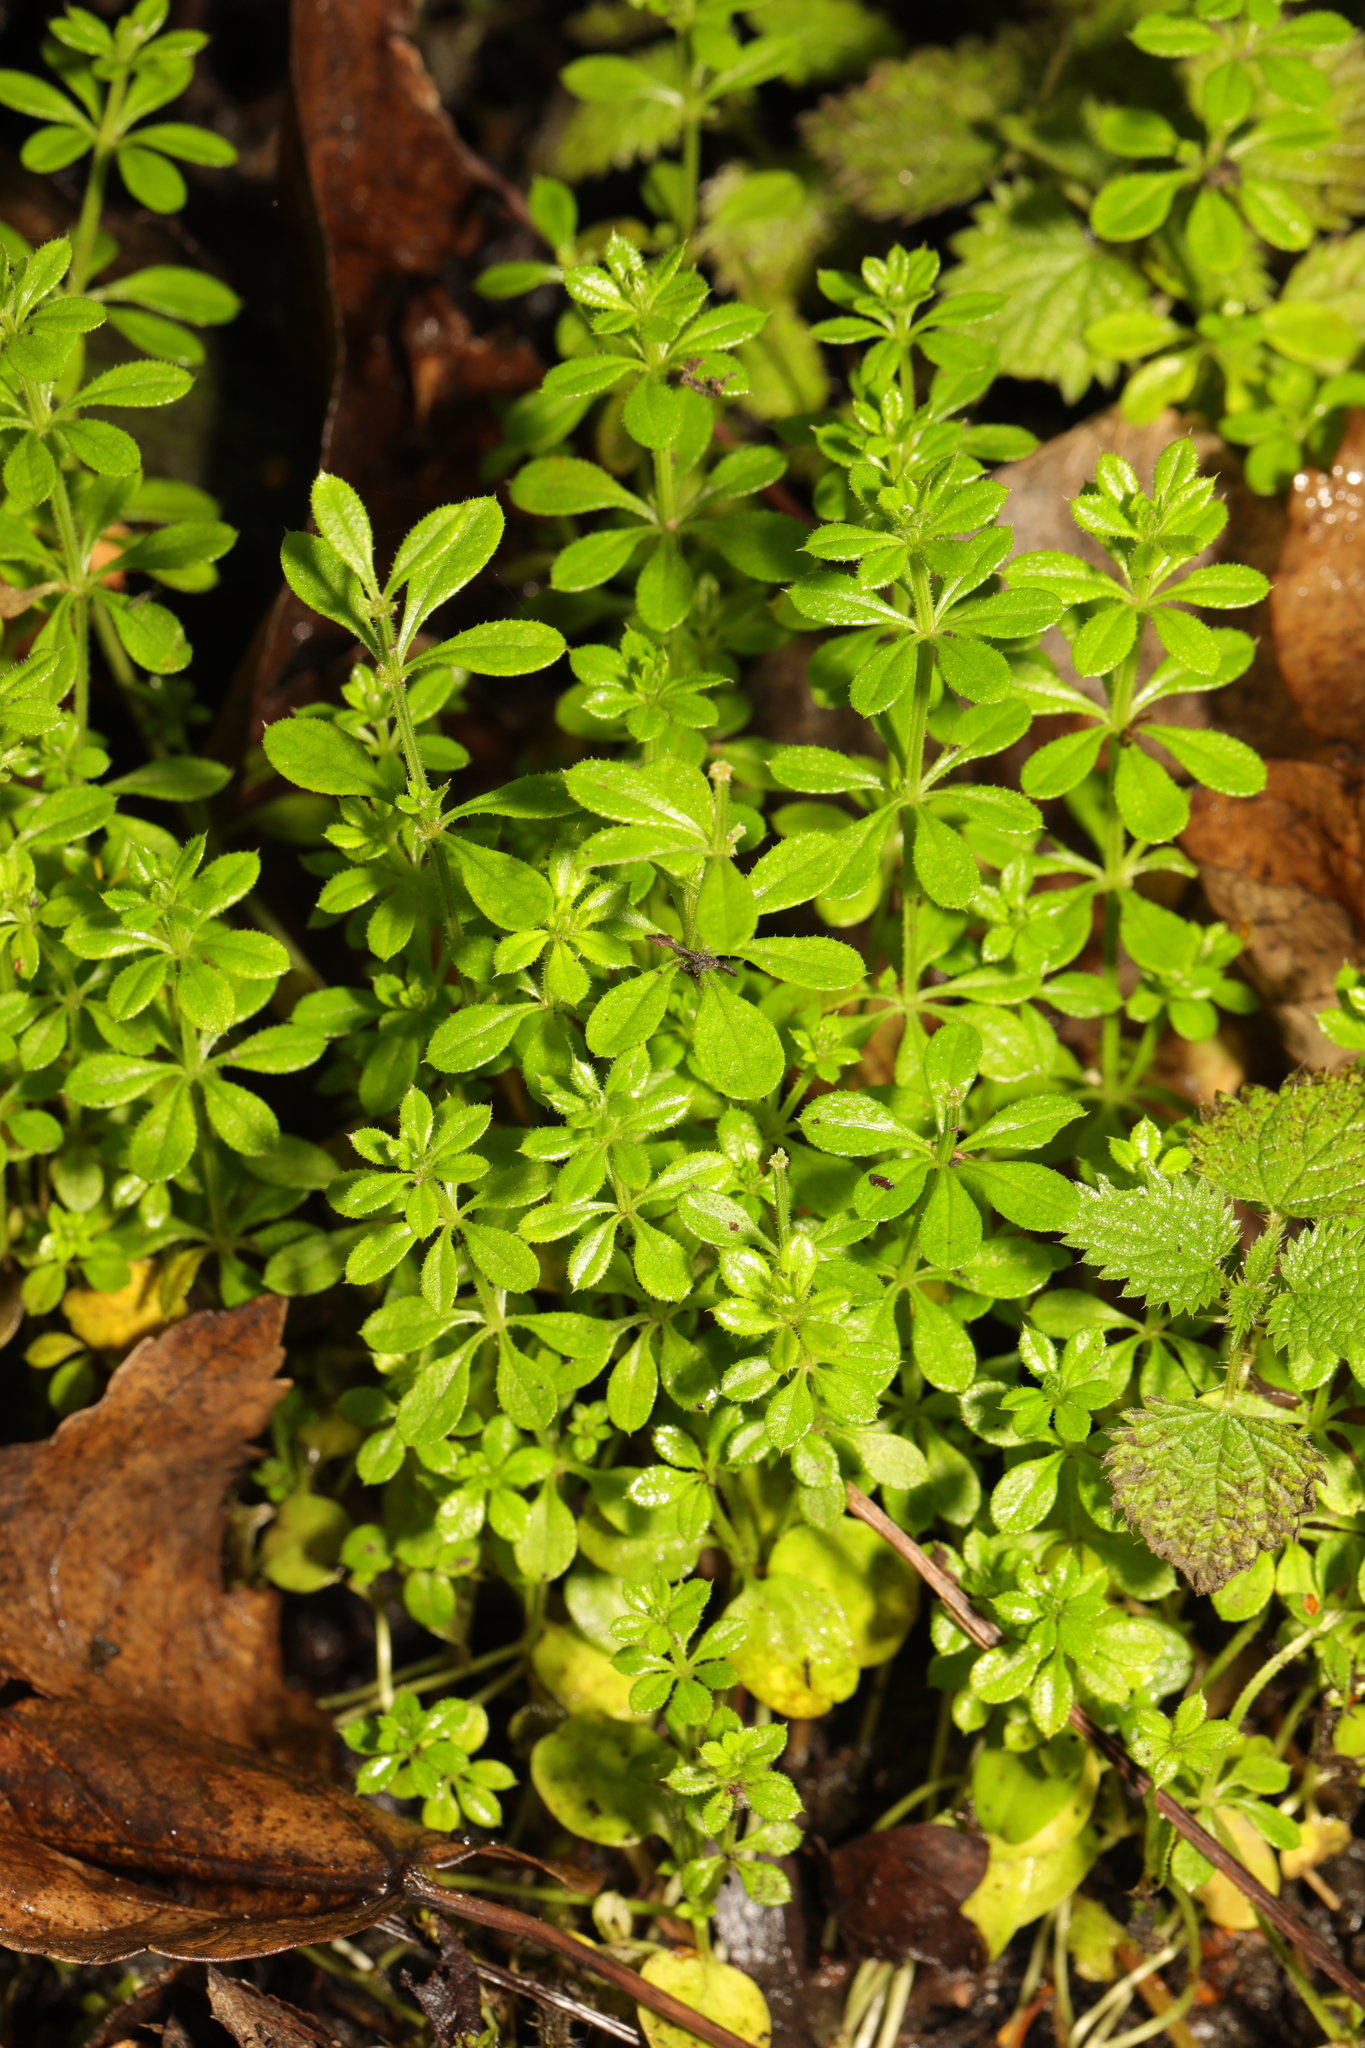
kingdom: Plantae
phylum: Tracheophyta
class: Magnoliopsida
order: Gentianales
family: Rubiaceae
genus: Galium
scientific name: Galium aparine
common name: Cleavers
